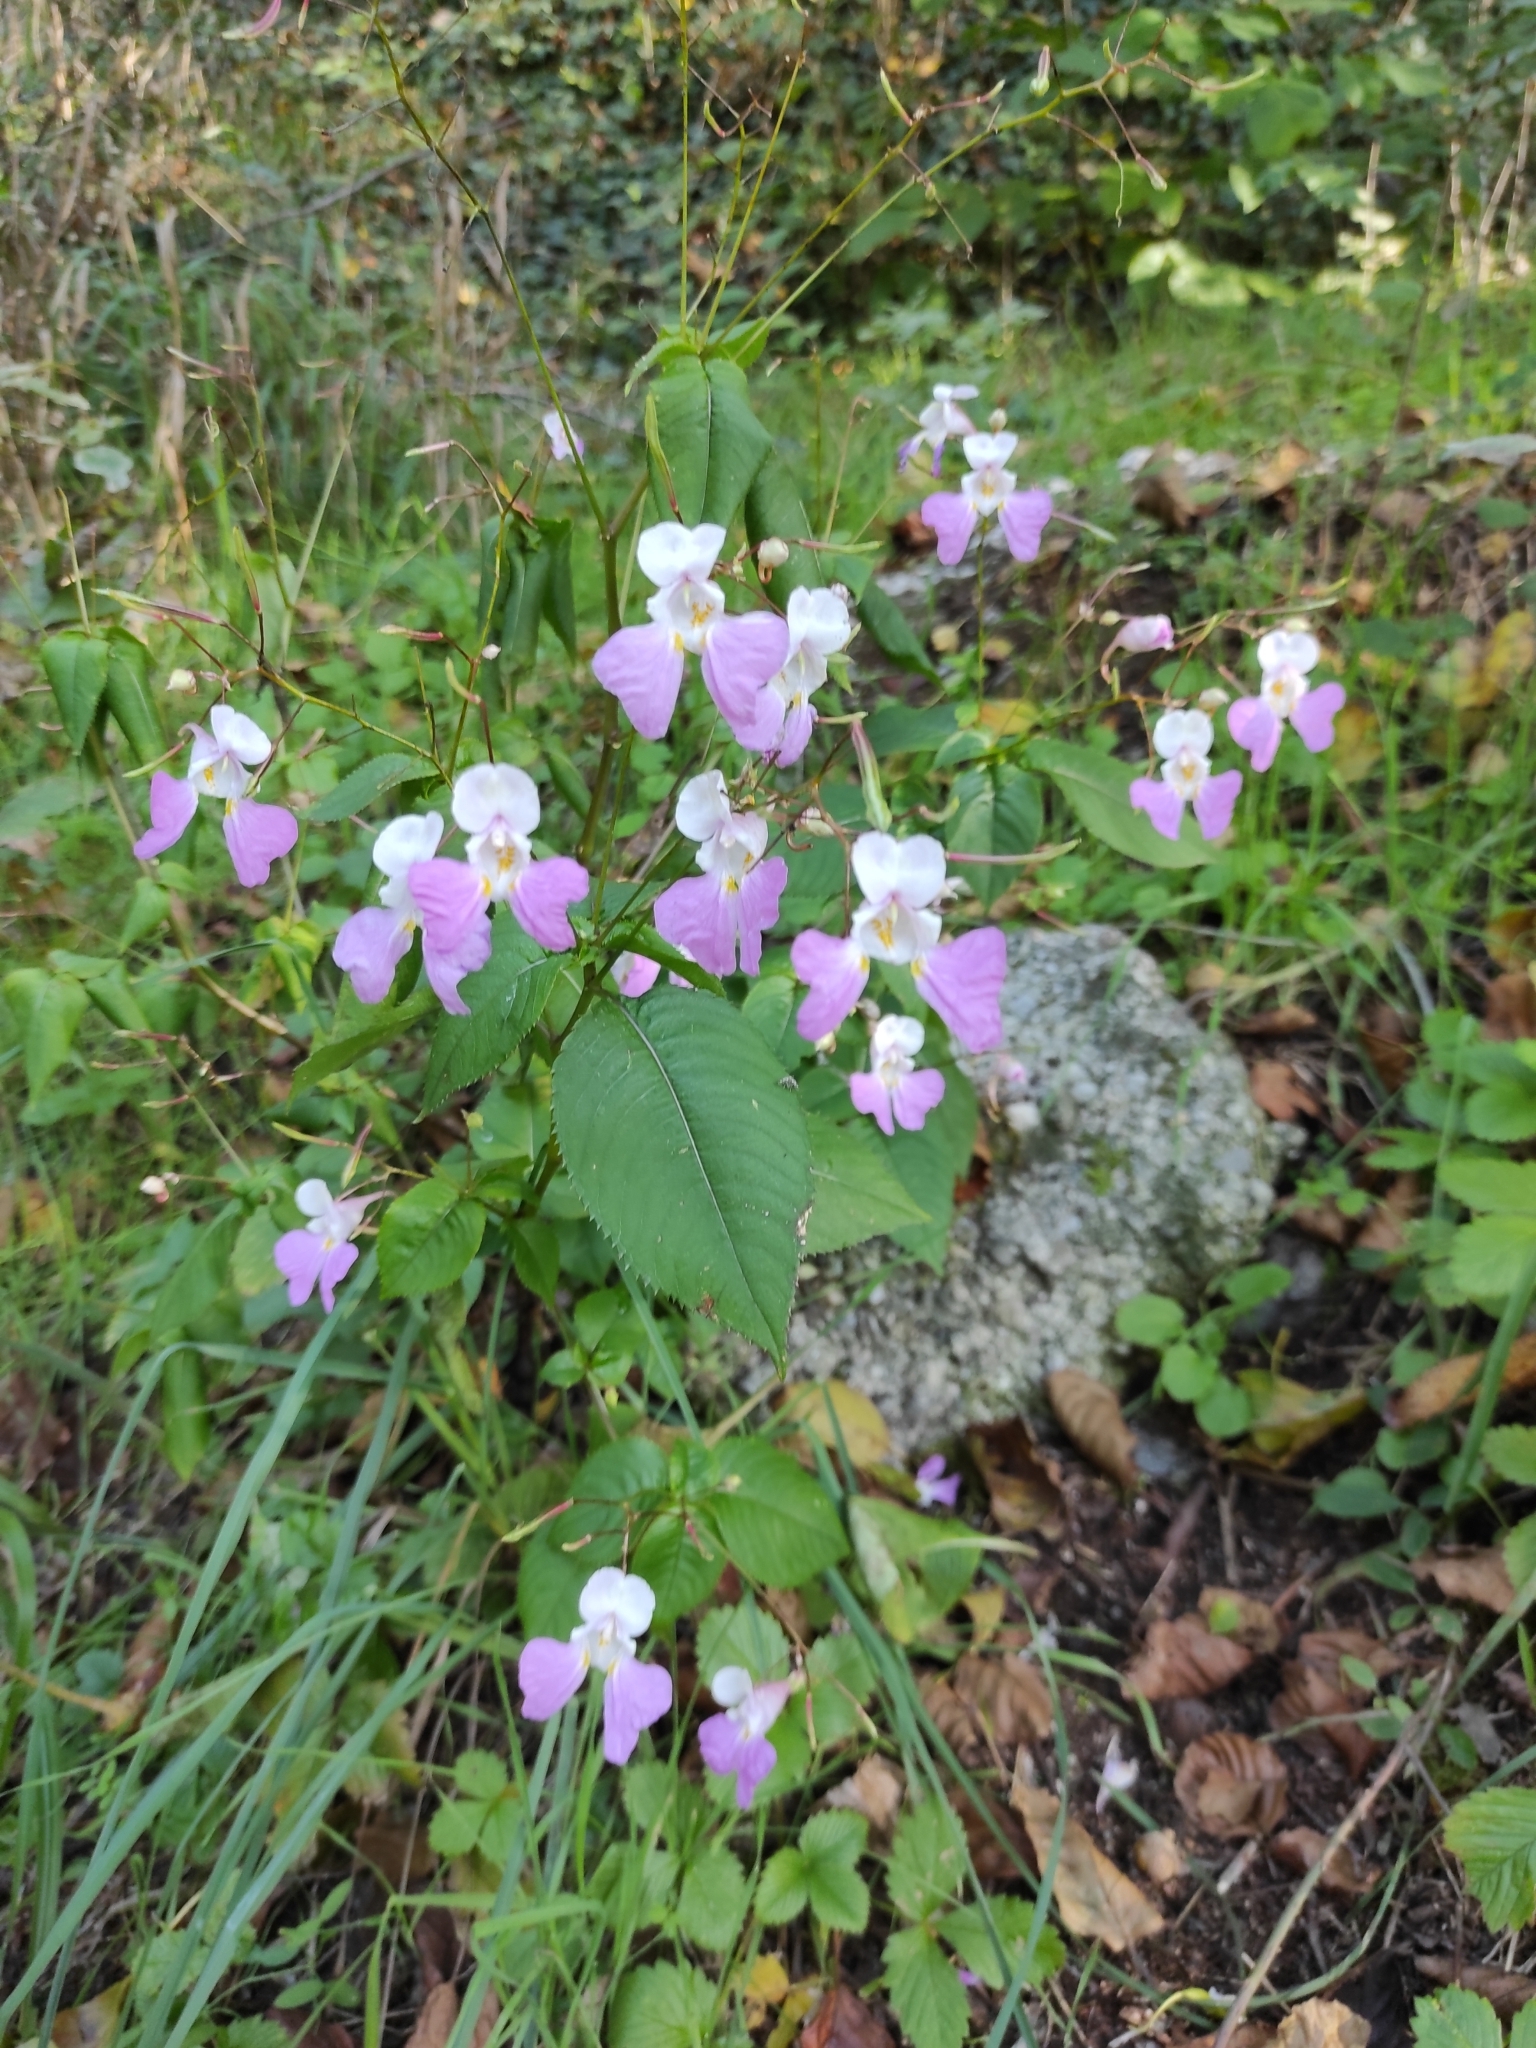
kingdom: Plantae
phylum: Tracheophyta
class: Magnoliopsida
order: Ericales
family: Balsaminaceae
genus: Impatiens
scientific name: Impatiens balfourii
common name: Balfour's touch-me-not
